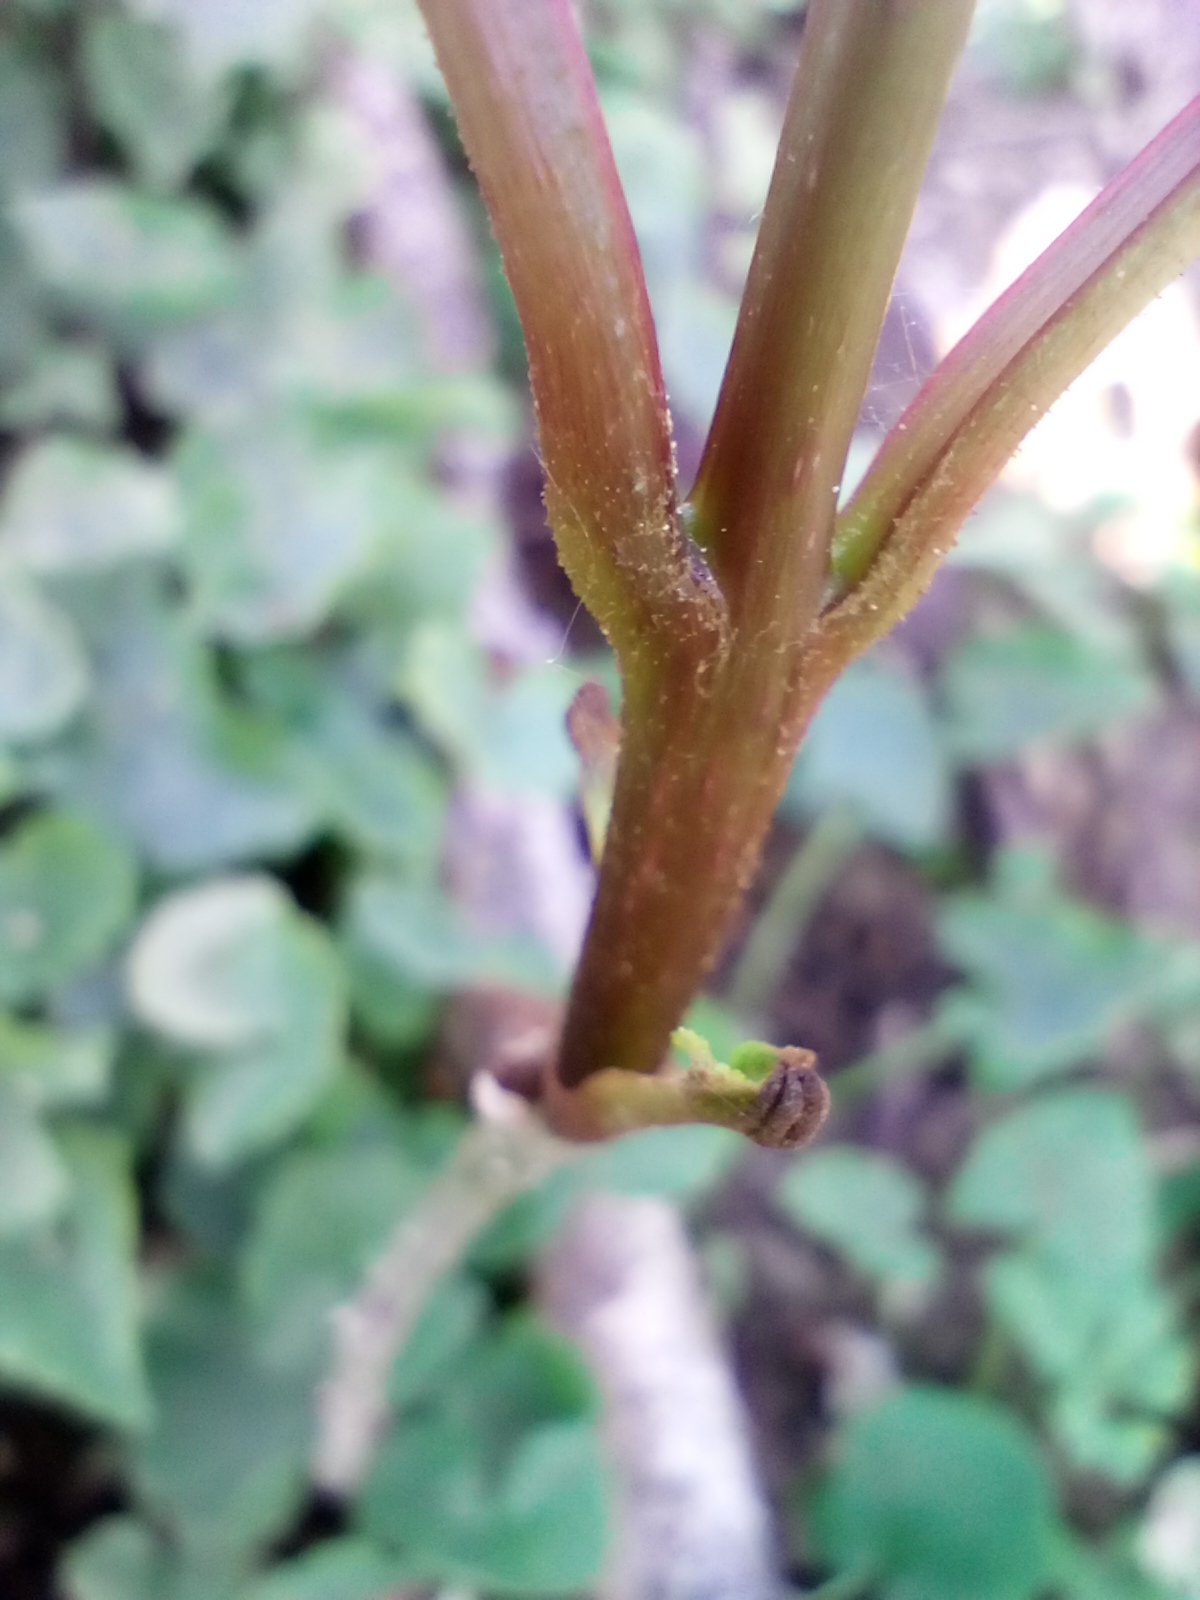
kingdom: Plantae
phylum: Tracheophyta
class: Magnoliopsida
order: Lamiales
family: Oleaceae
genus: Fraxinus
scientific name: Fraxinus excelsior
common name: European ash
